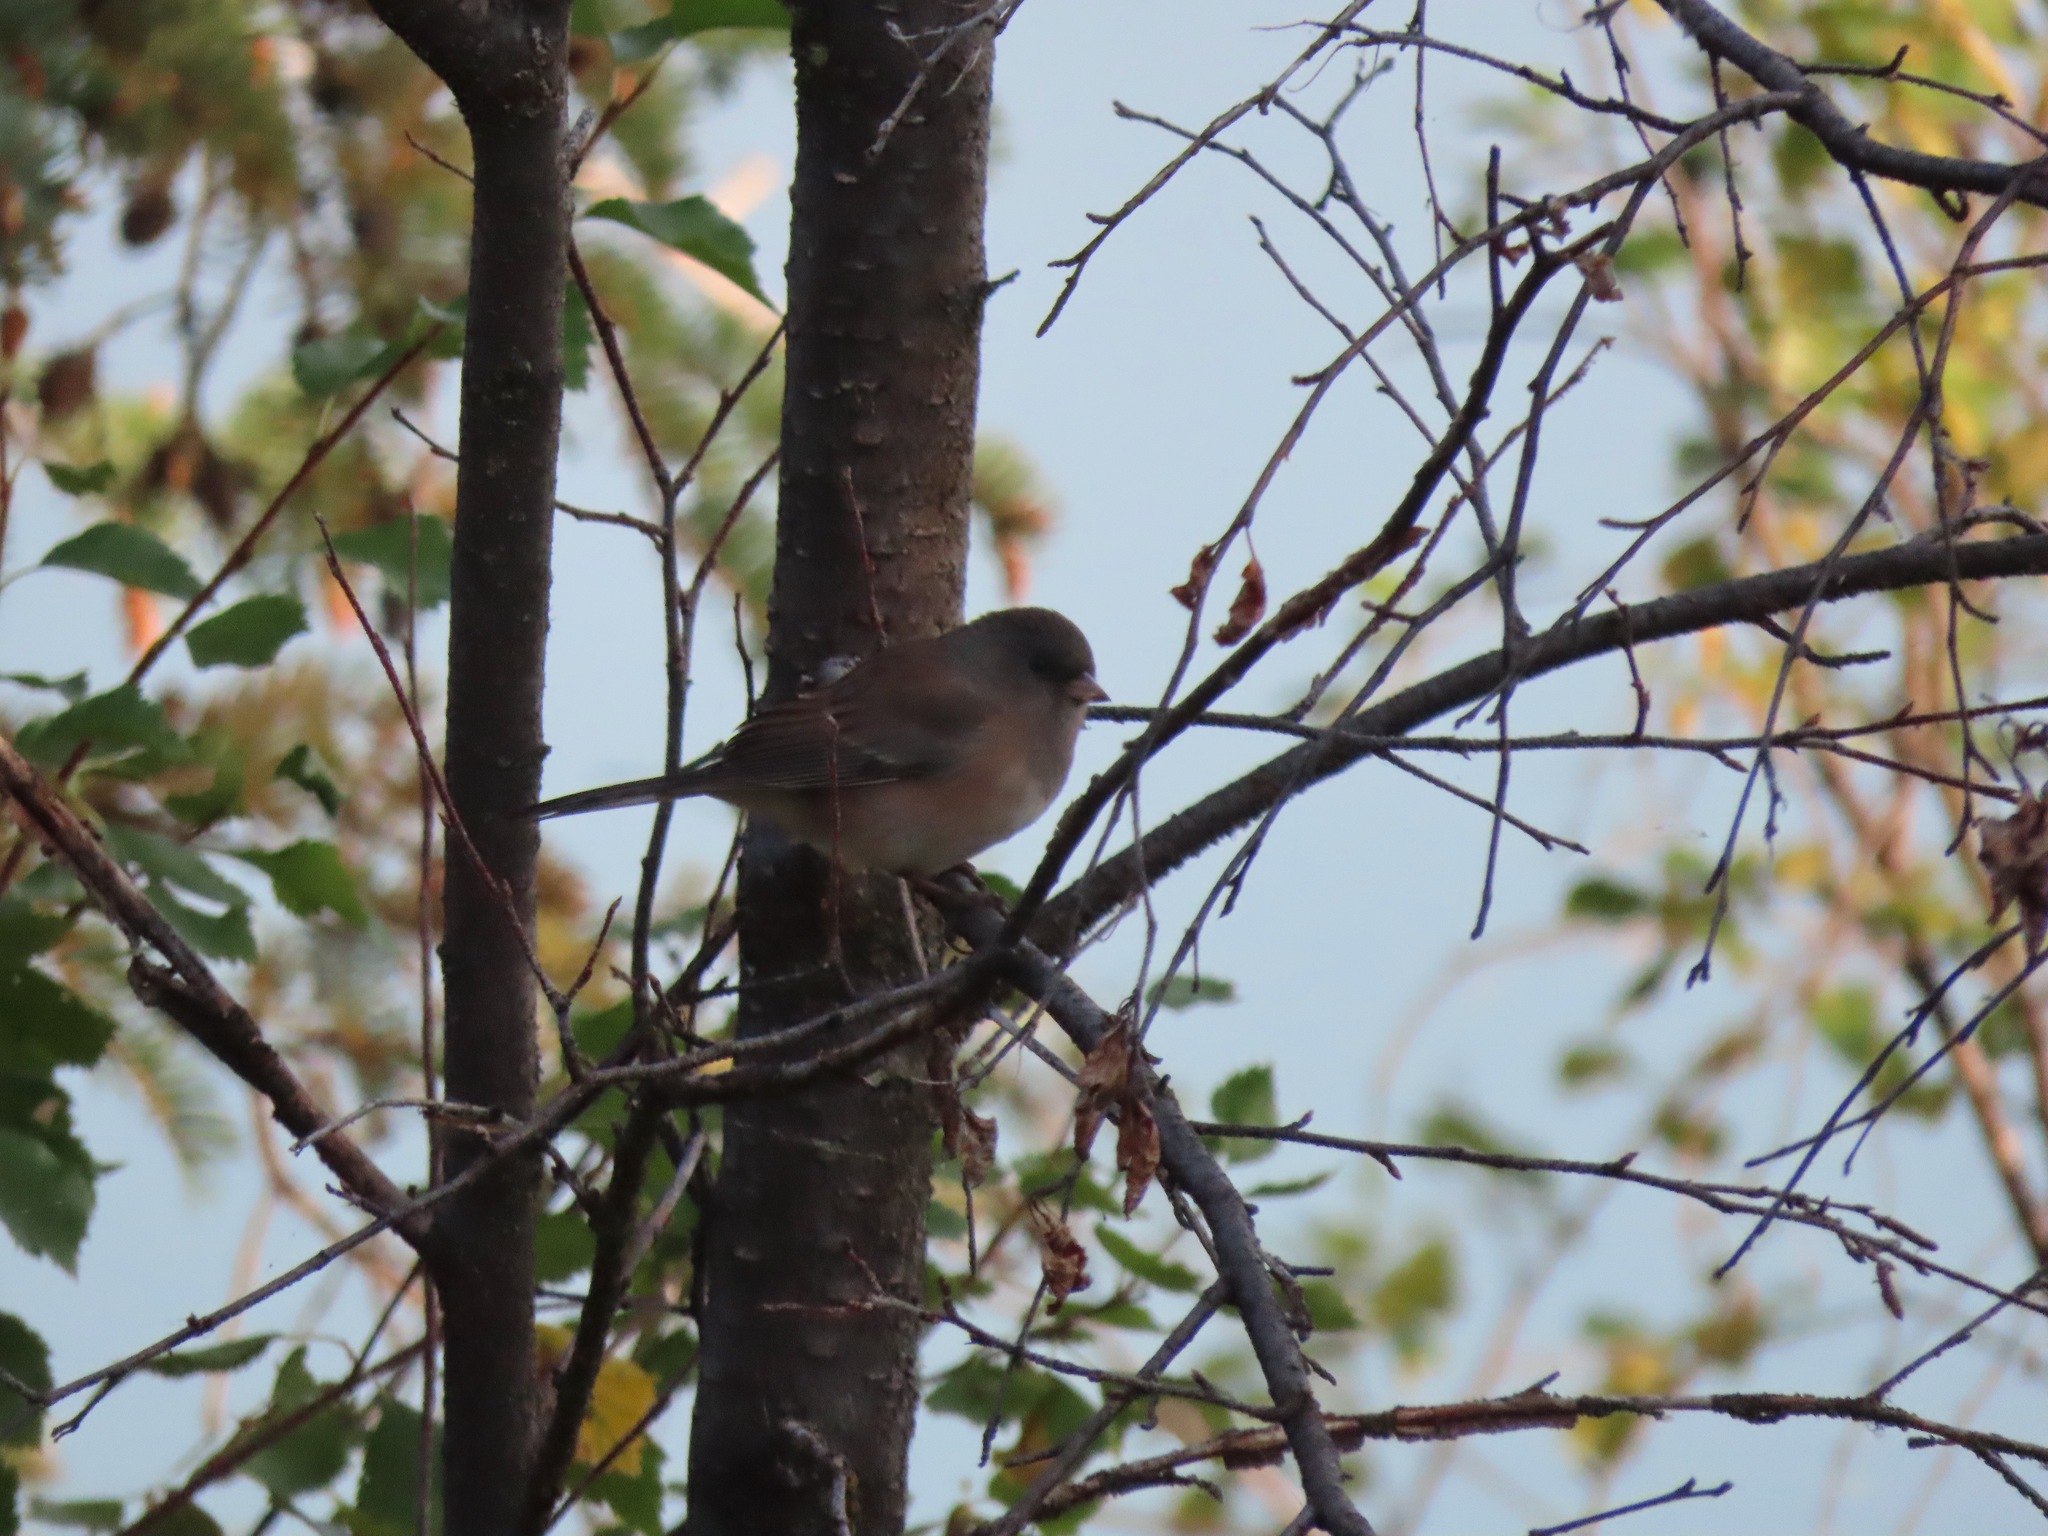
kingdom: Animalia
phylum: Chordata
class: Aves
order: Passeriformes
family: Passerellidae
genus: Junco
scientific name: Junco hyemalis
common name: Dark-eyed junco
